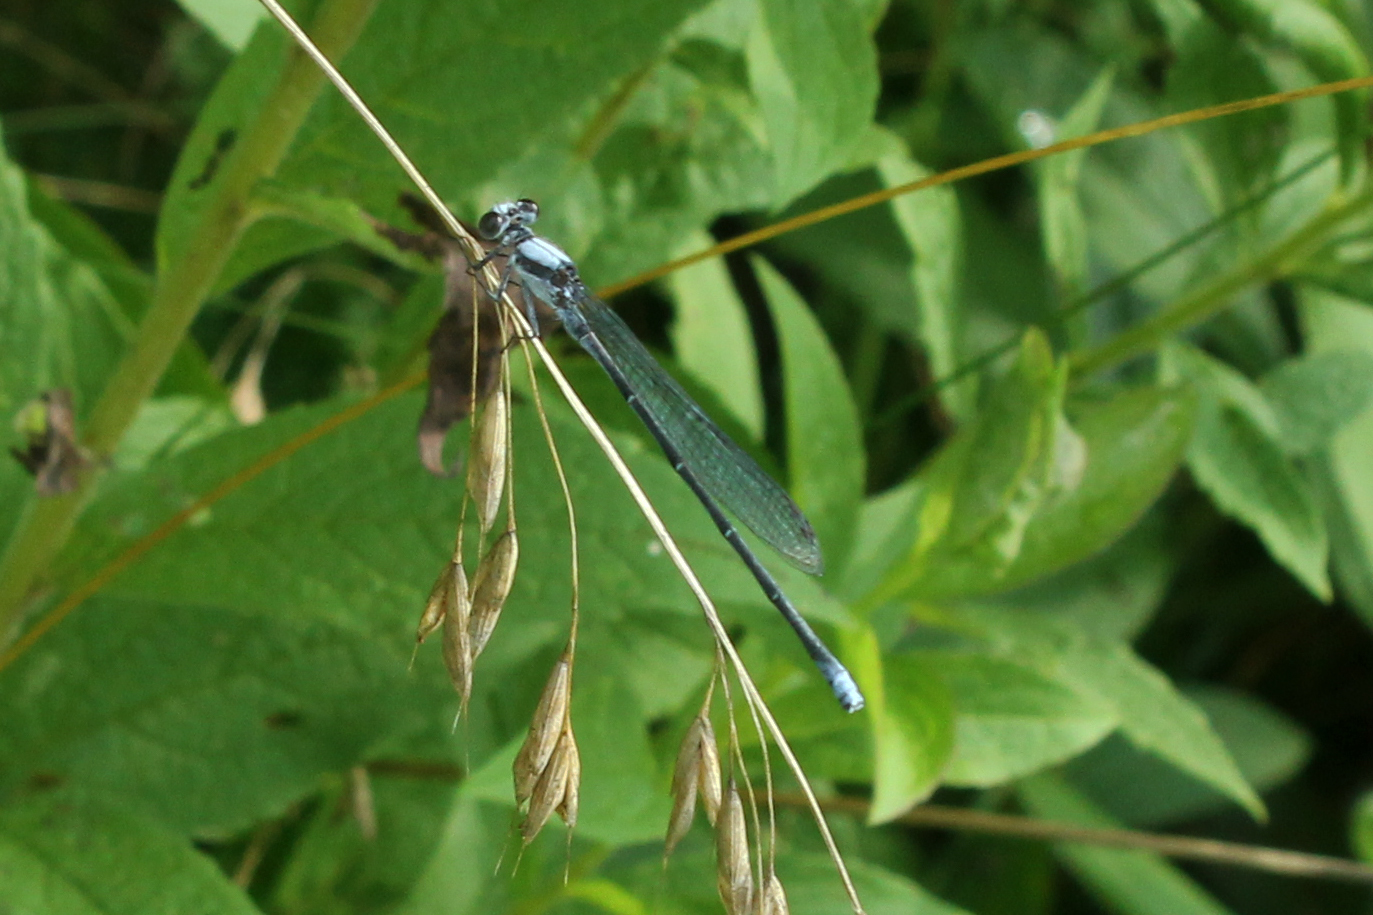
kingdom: Animalia
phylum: Arthropoda
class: Insecta
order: Odonata
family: Coenagrionidae
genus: Argia
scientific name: Argia moesta
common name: Powdered dancer
